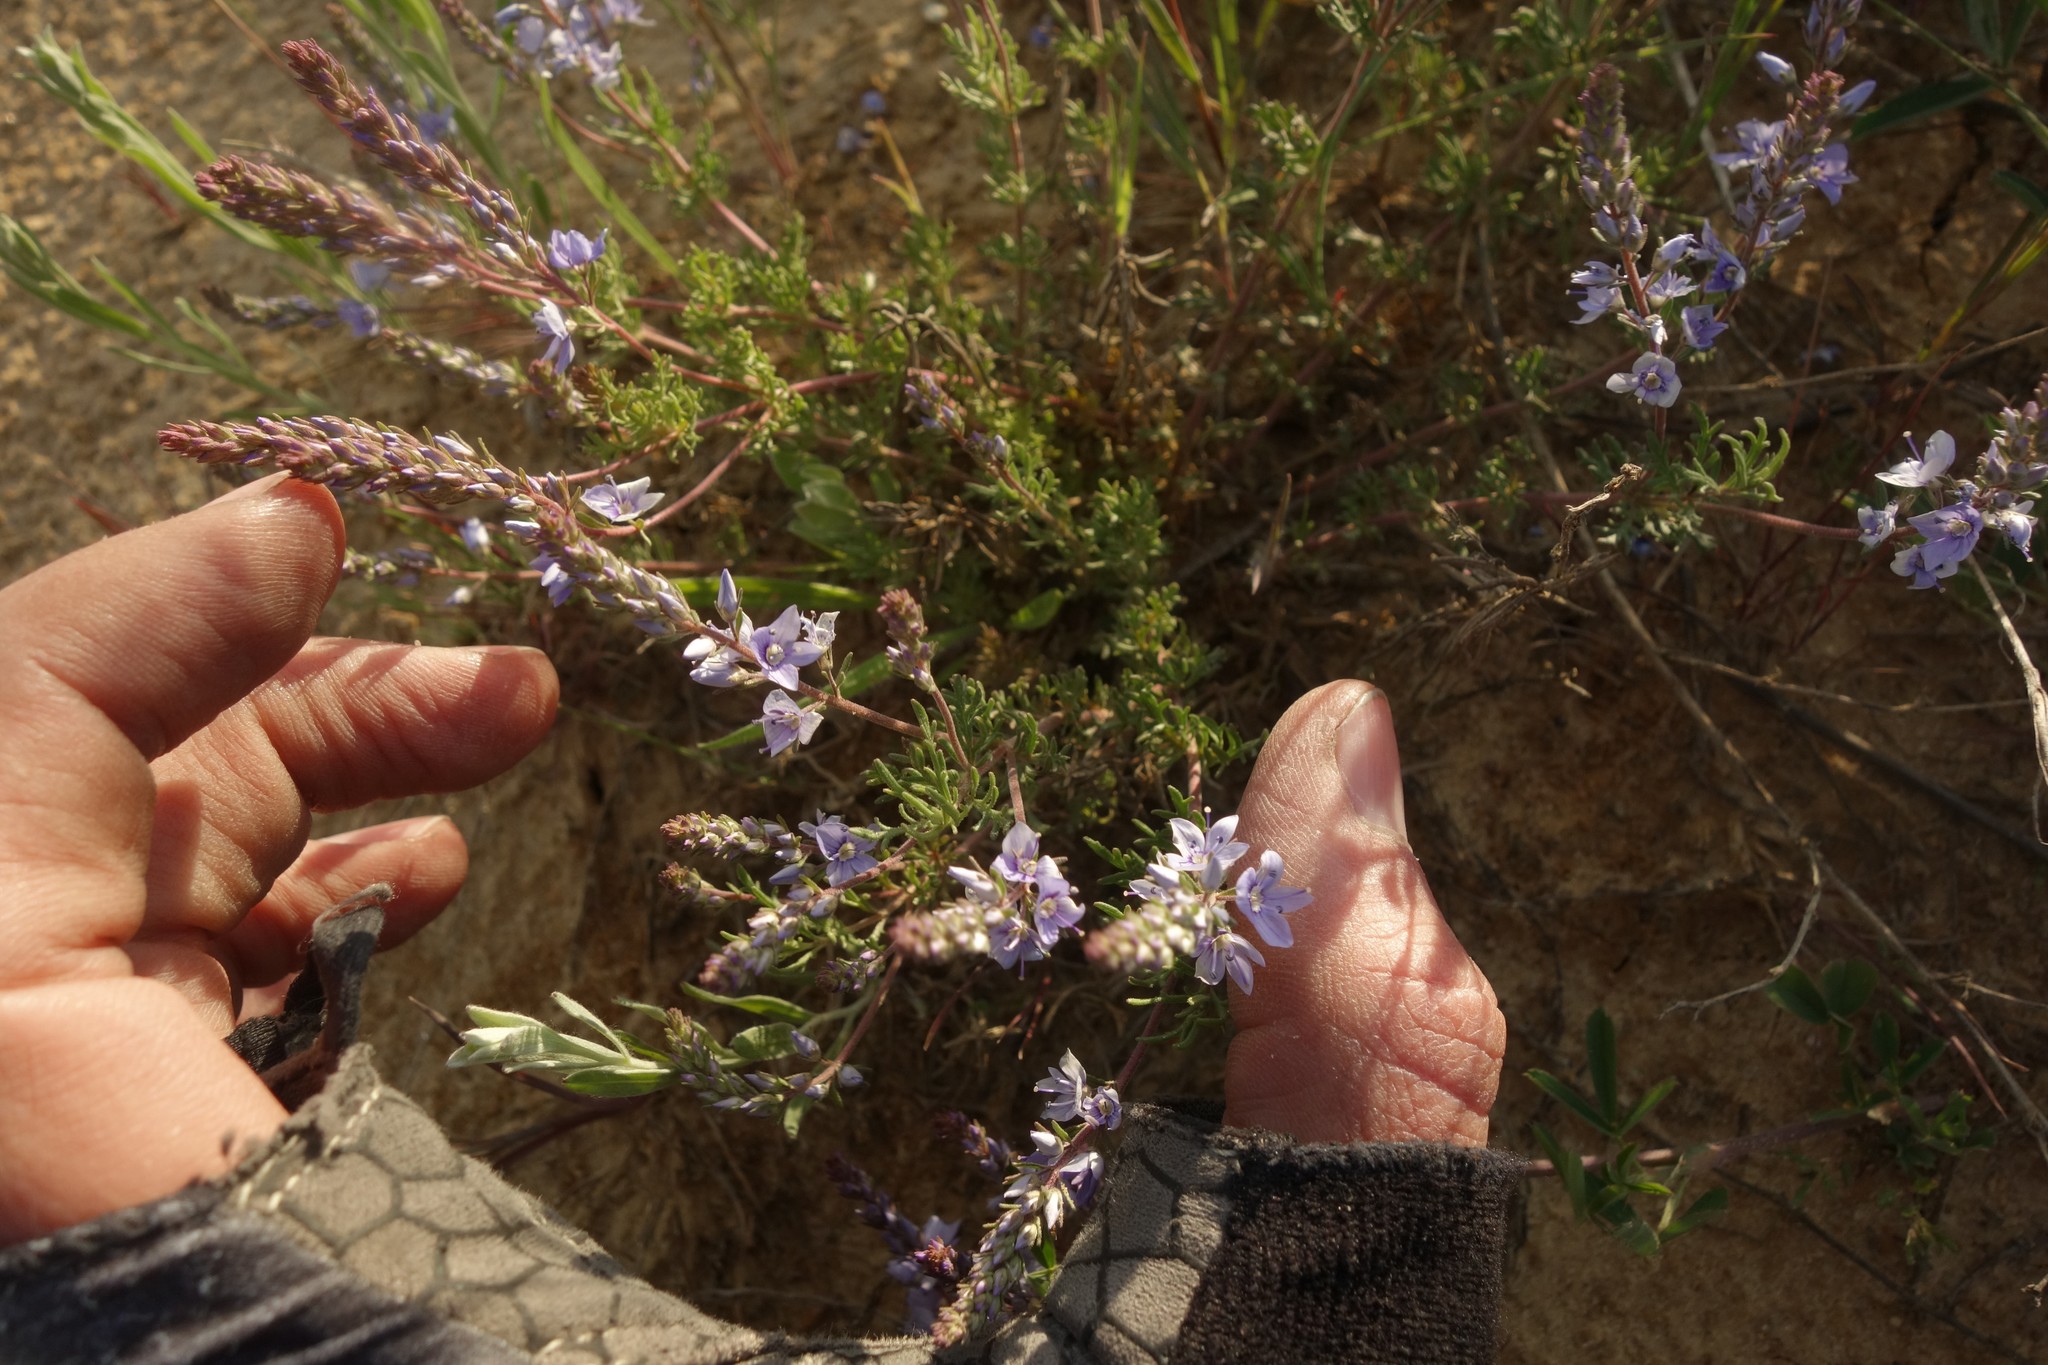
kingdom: Plantae
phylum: Tracheophyta
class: Magnoliopsida
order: Lamiales
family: Plantaginaceae
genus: Veronica
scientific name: Veronica multifida
